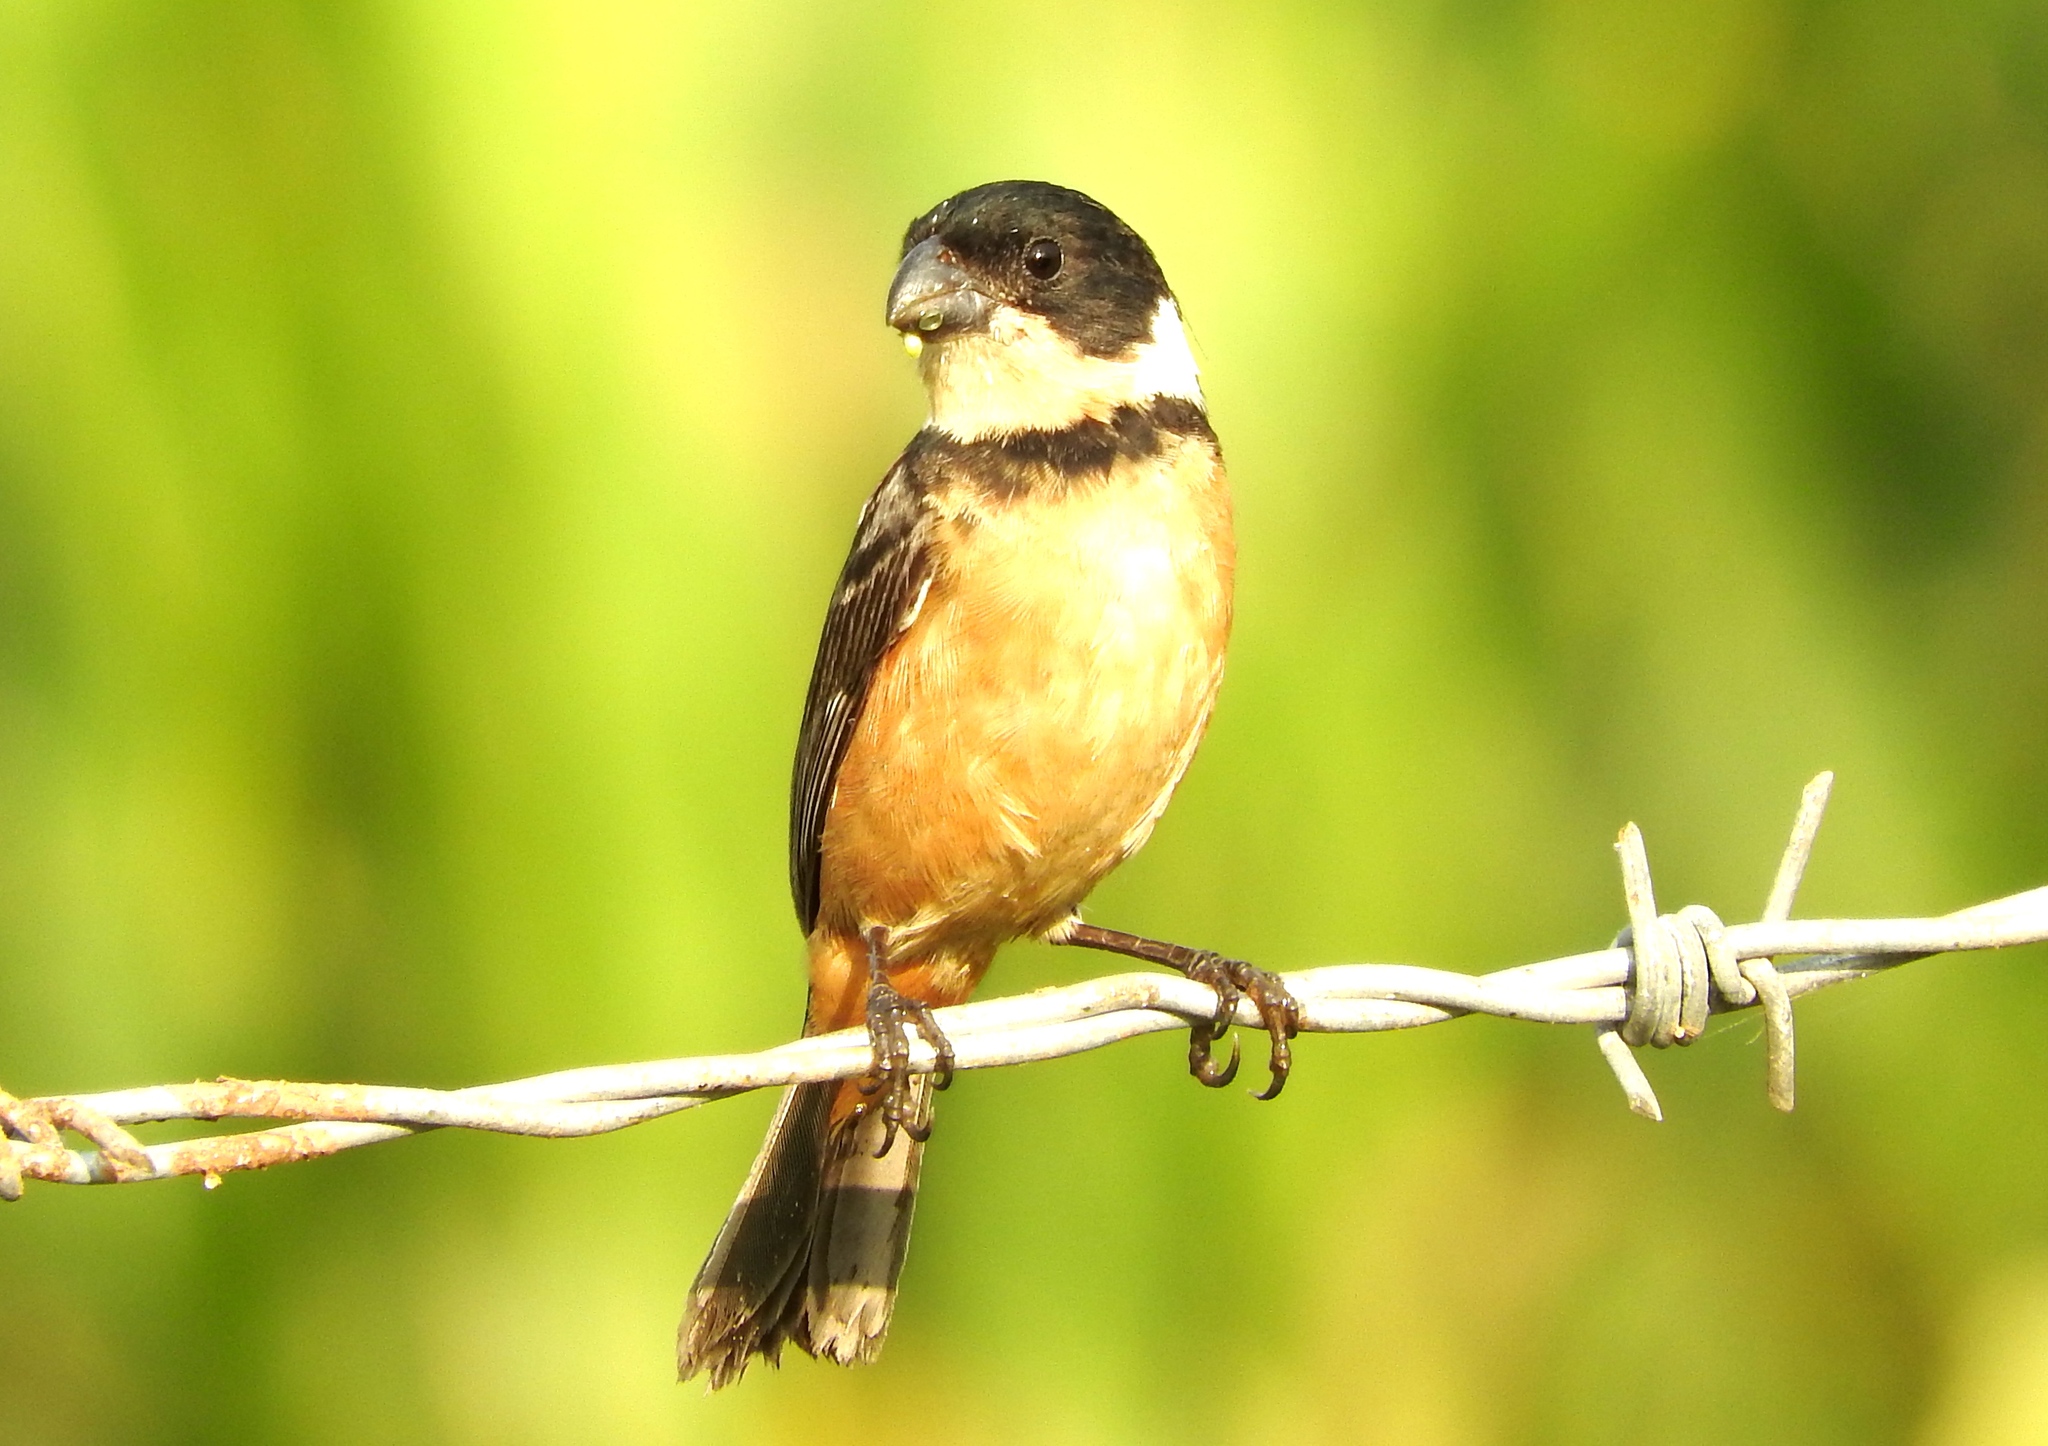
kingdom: Animalia
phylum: Chordata
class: Aves
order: Passeriformes
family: Thraupidae
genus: Sporophila
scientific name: Sporophila torqueola
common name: White-collared seedeater
